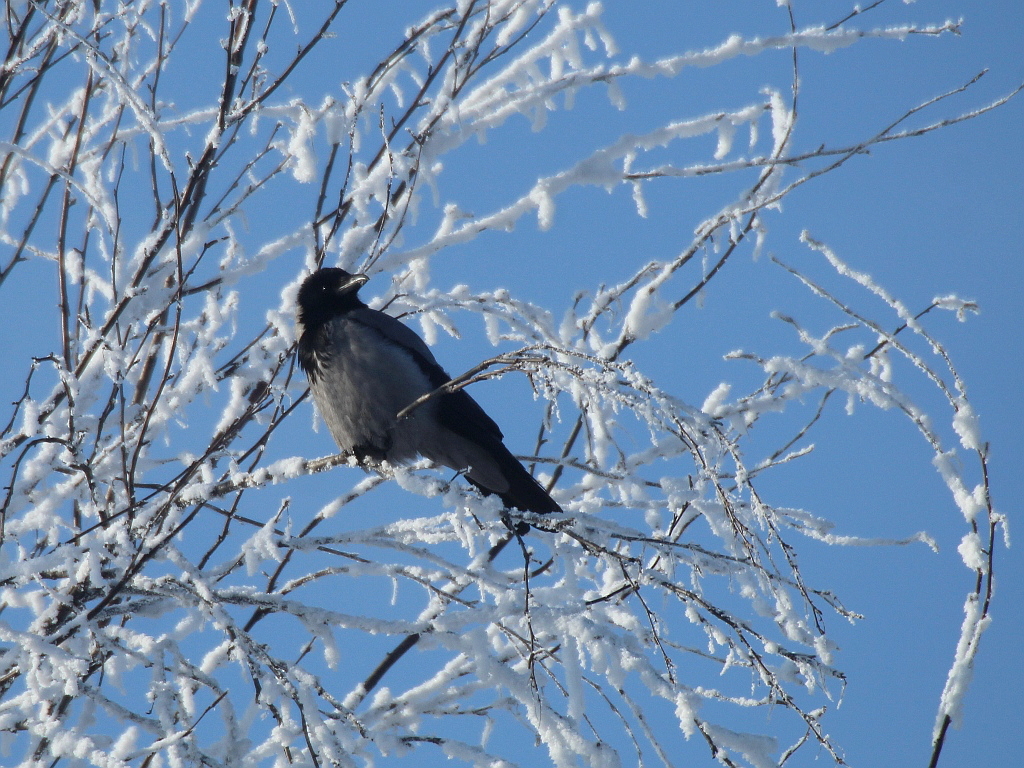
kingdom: Animalia
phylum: Chordata
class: Aves
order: Passeriformes
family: Corvidae
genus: Corvus
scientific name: Corvus cornix
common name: Hooded crow
